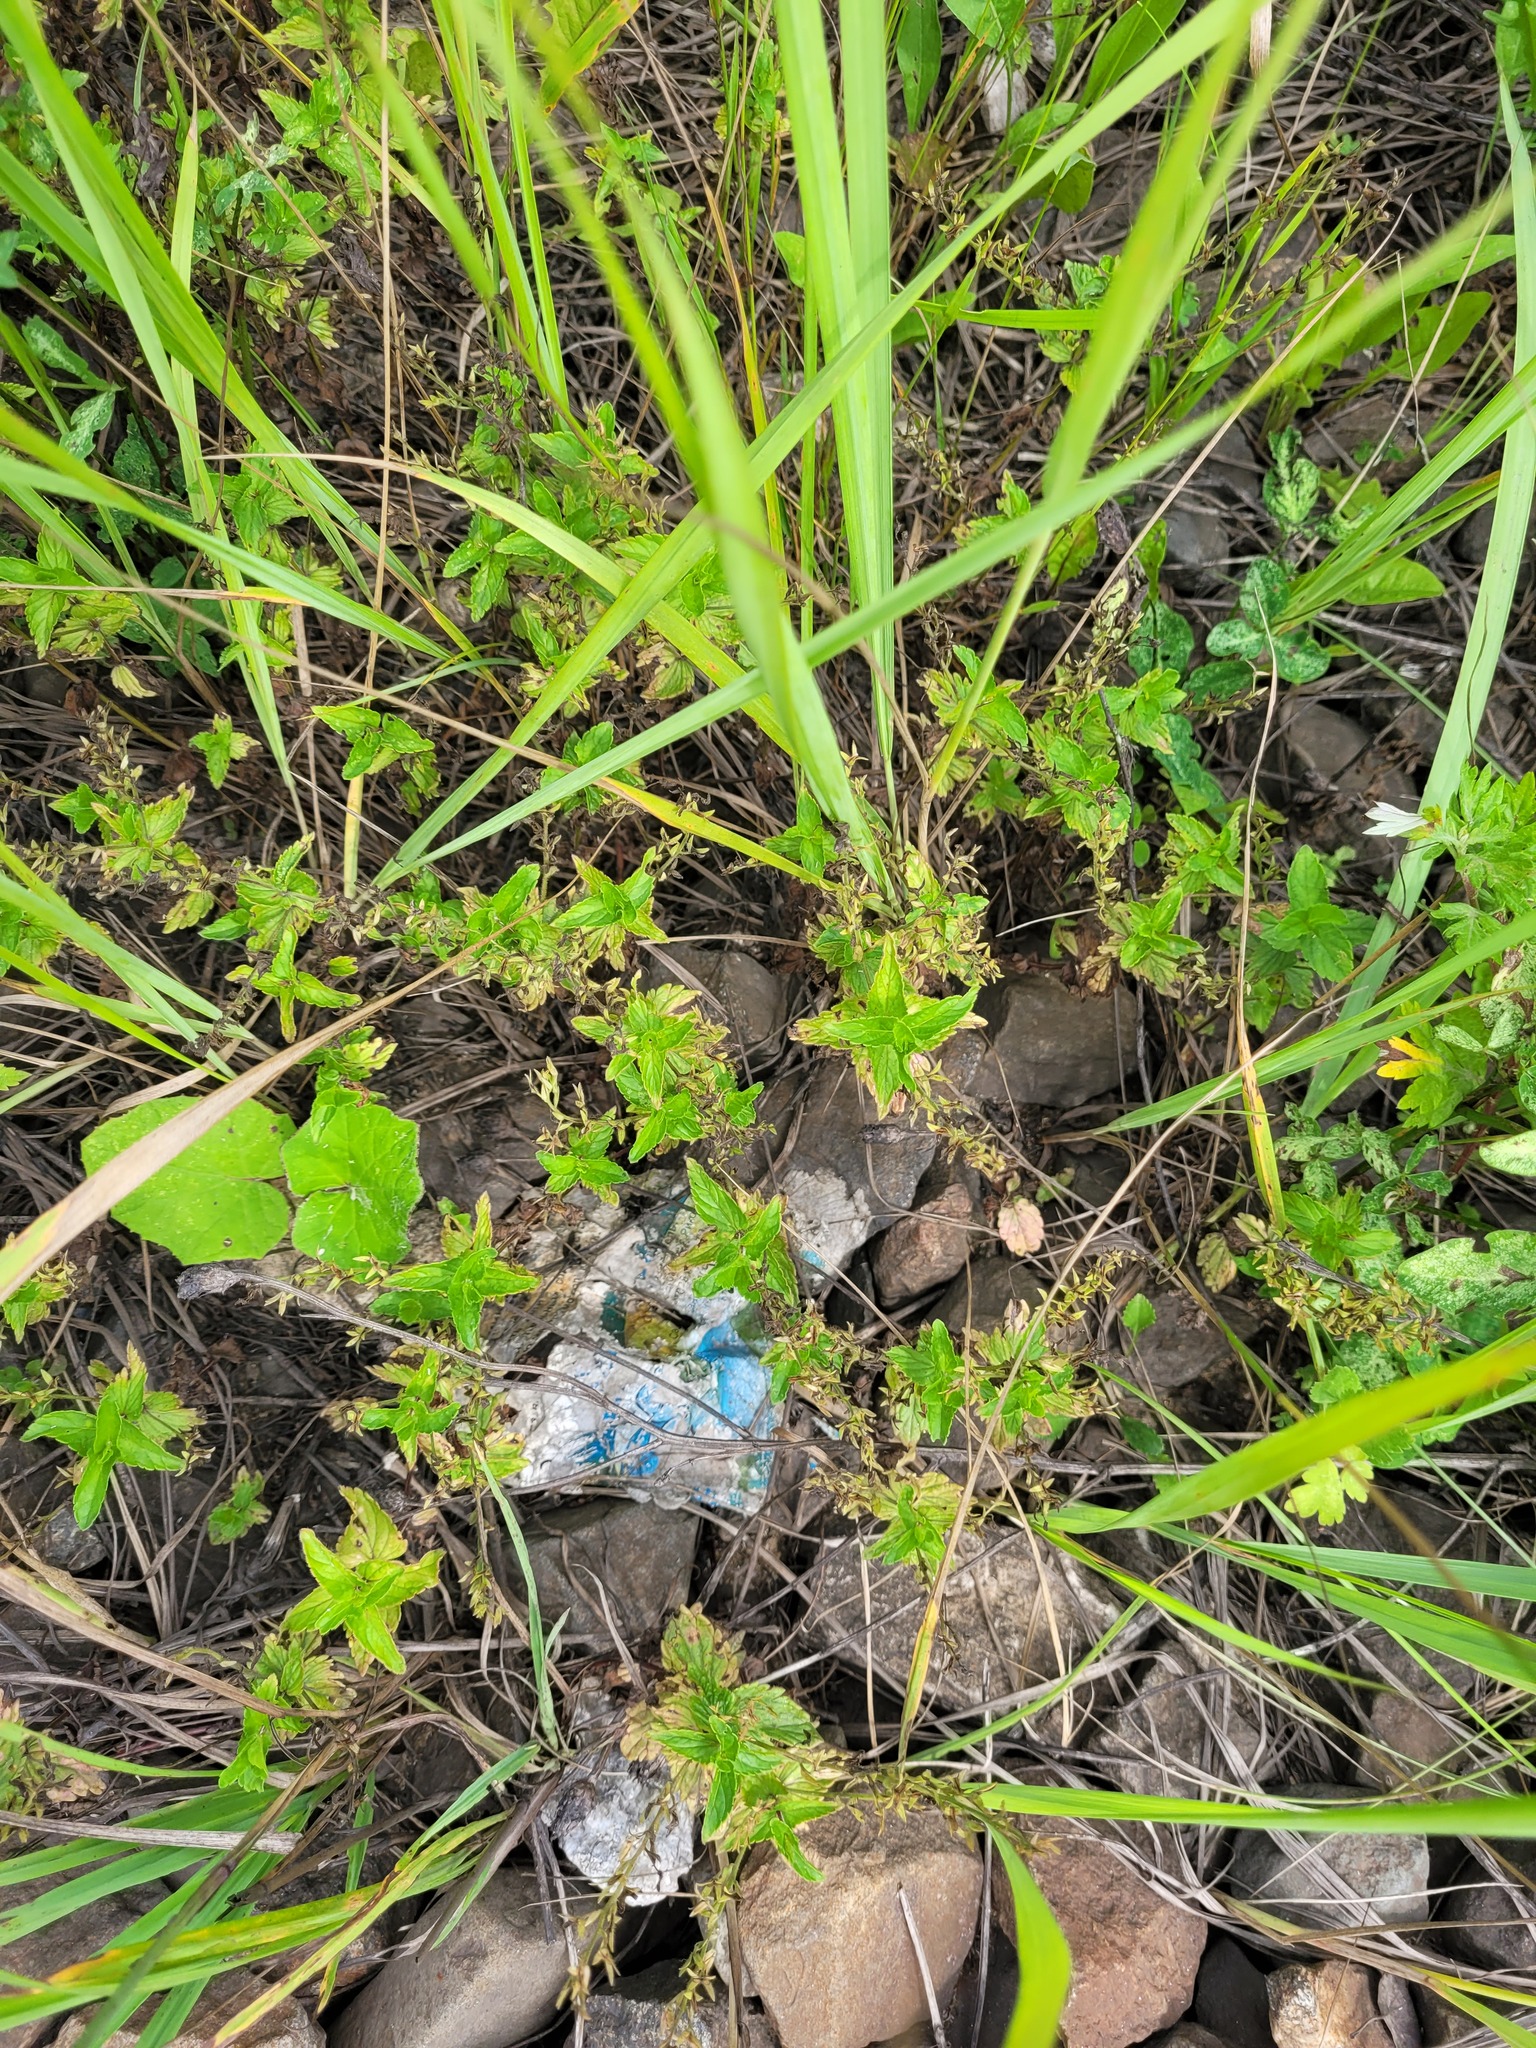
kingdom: Plantae
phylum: Tracheophyta
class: Magnoliopsida
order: Lamiales
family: Plantaginaceae
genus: Veronica
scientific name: Veronica chamaedrys
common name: Germander speedwell
